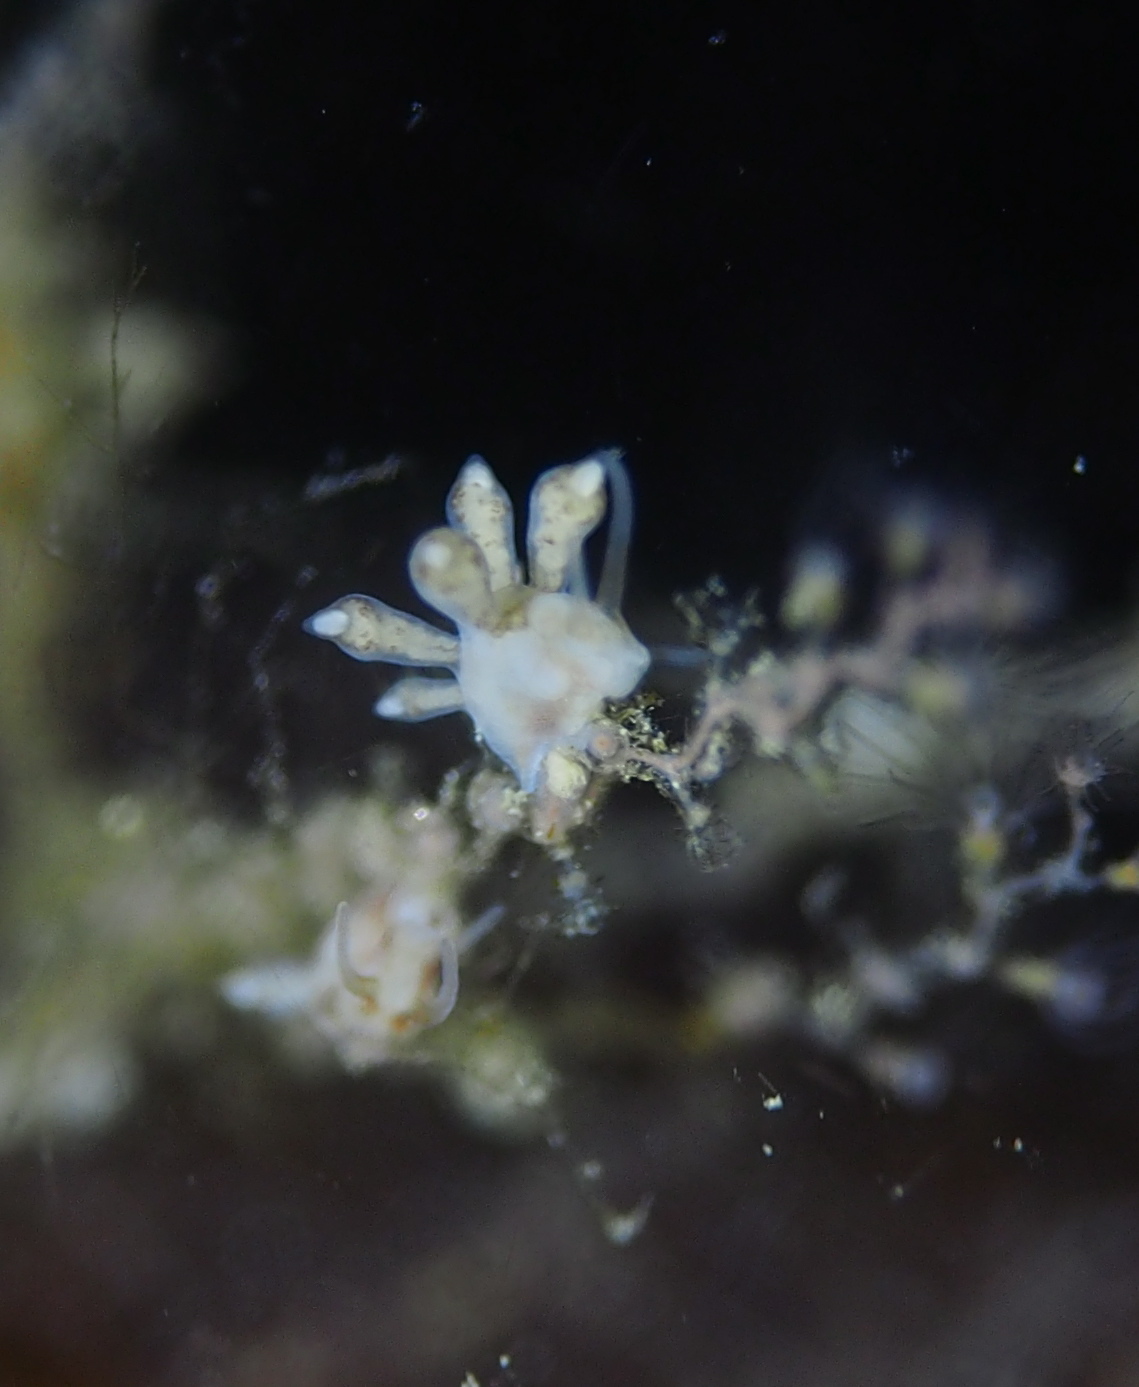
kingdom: Animalia
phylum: Mollusca
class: Gastropoda
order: Nudibranchia
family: Tergipedidae
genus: Tergipes
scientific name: Tergipes tergipes
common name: Johnston's balloon eolis
